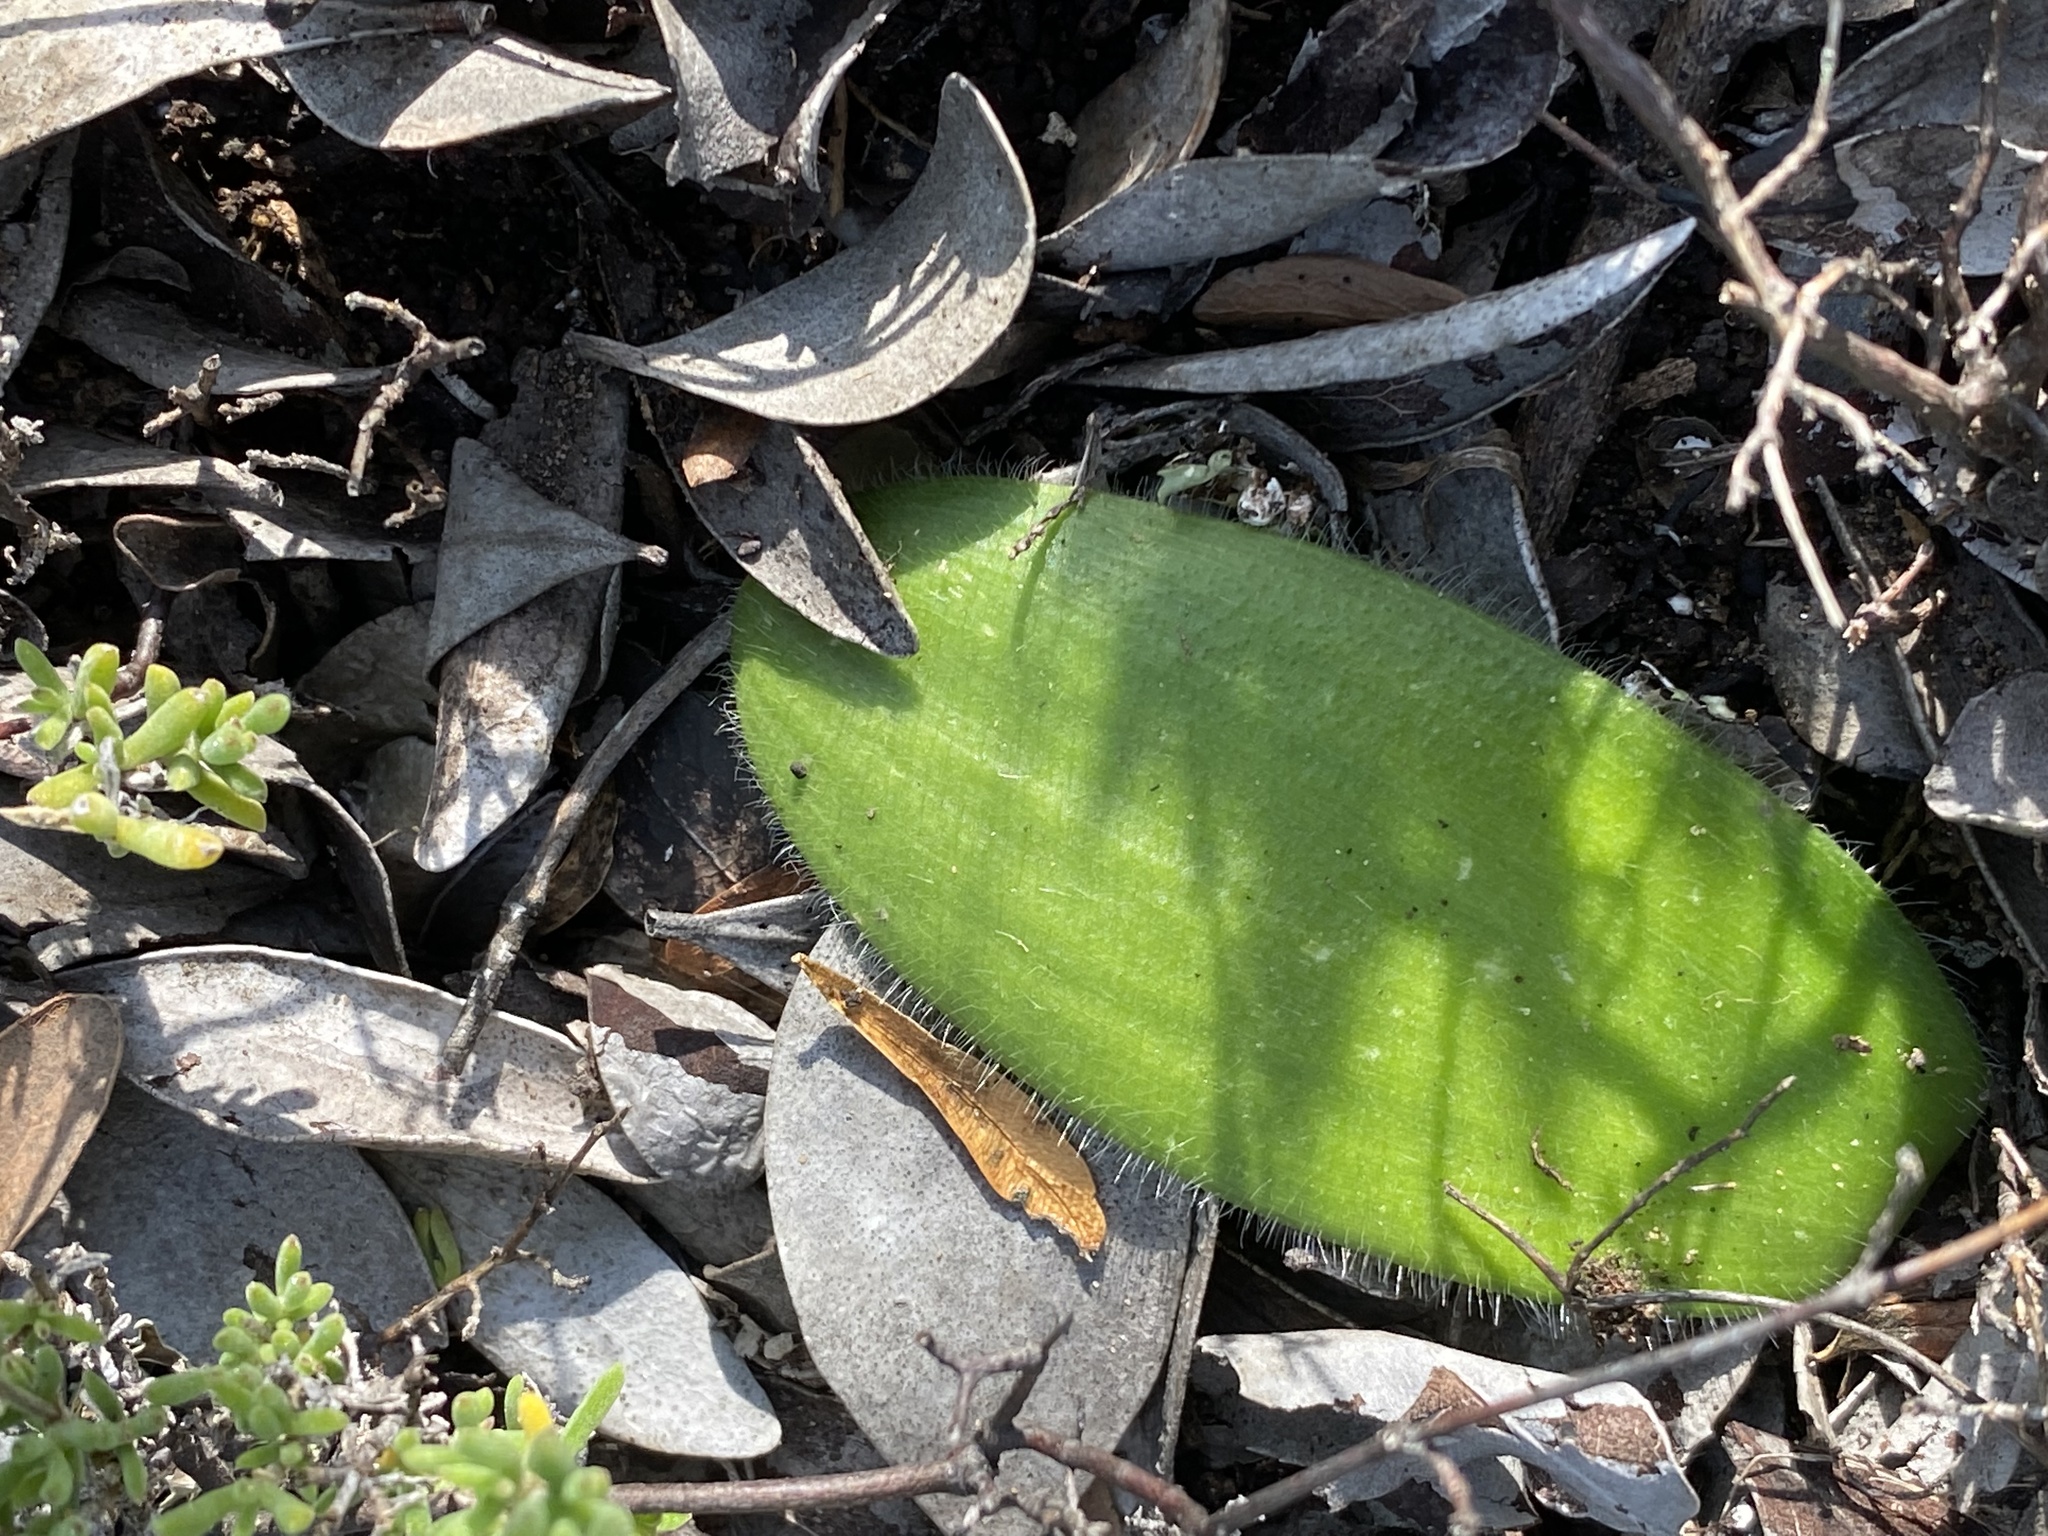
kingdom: Plantae
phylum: Tracheophyta
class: Liliopsida
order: Asparagales
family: Amaryllidaceae
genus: Haemanthus
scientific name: Haemanthus albiflos
